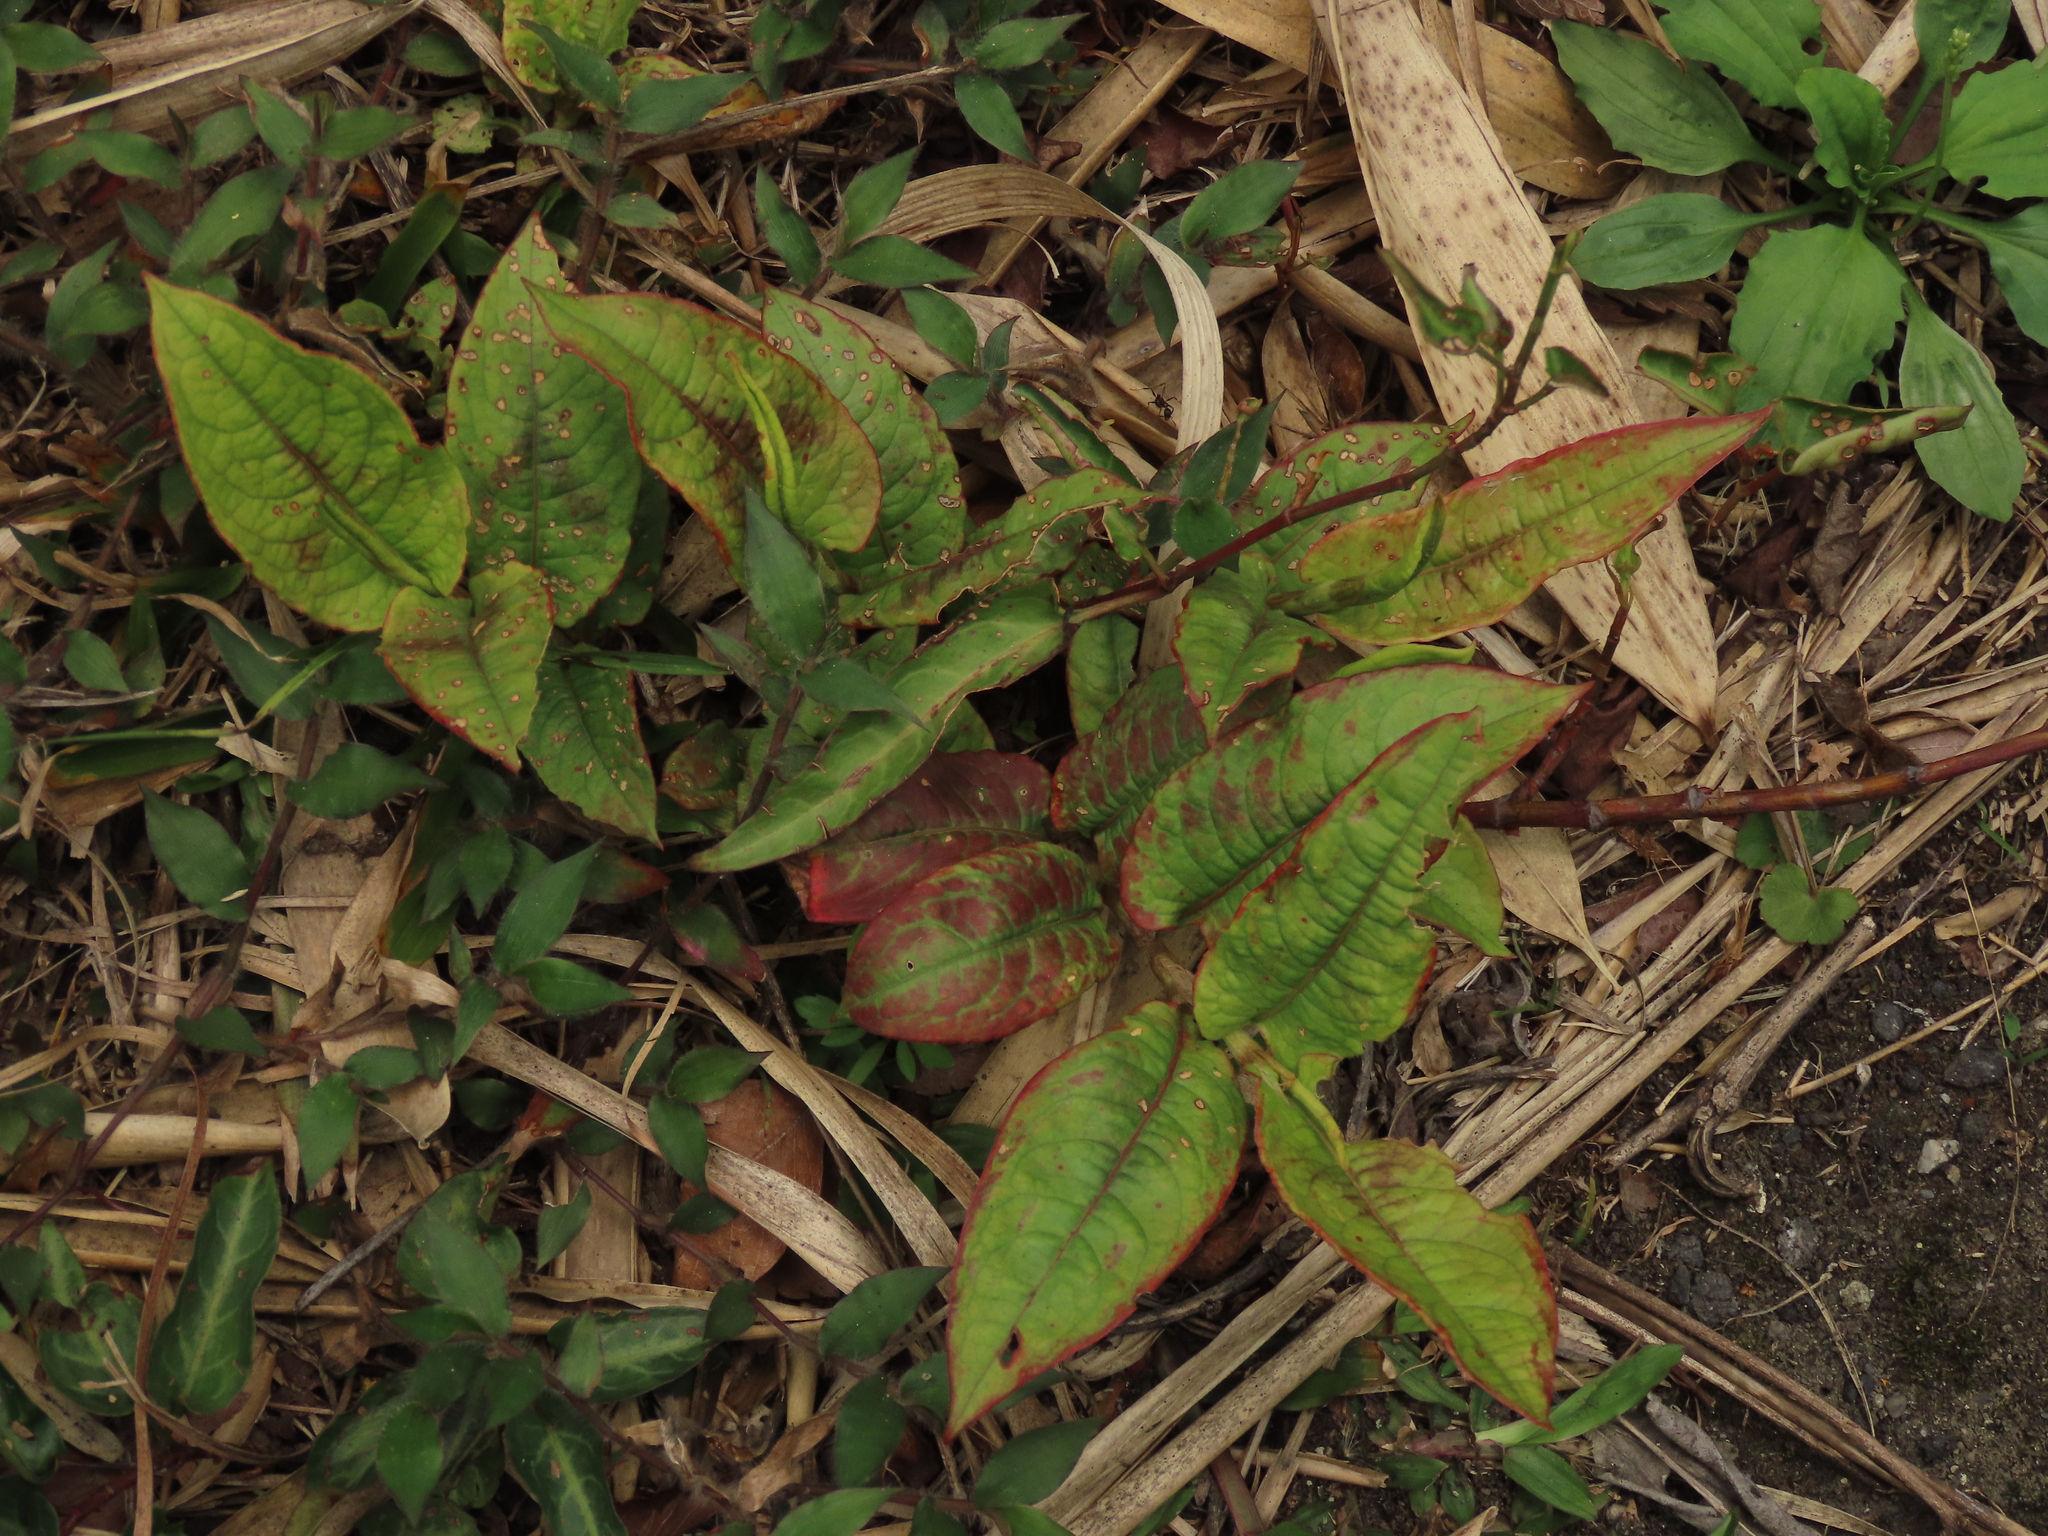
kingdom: Plantae
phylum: Tracheophyta
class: Magnoliopsida
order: Caryophyllales
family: Polygonaceae
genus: Persicaria
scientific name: Persicaria chinensis
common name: Chinese knotweed
